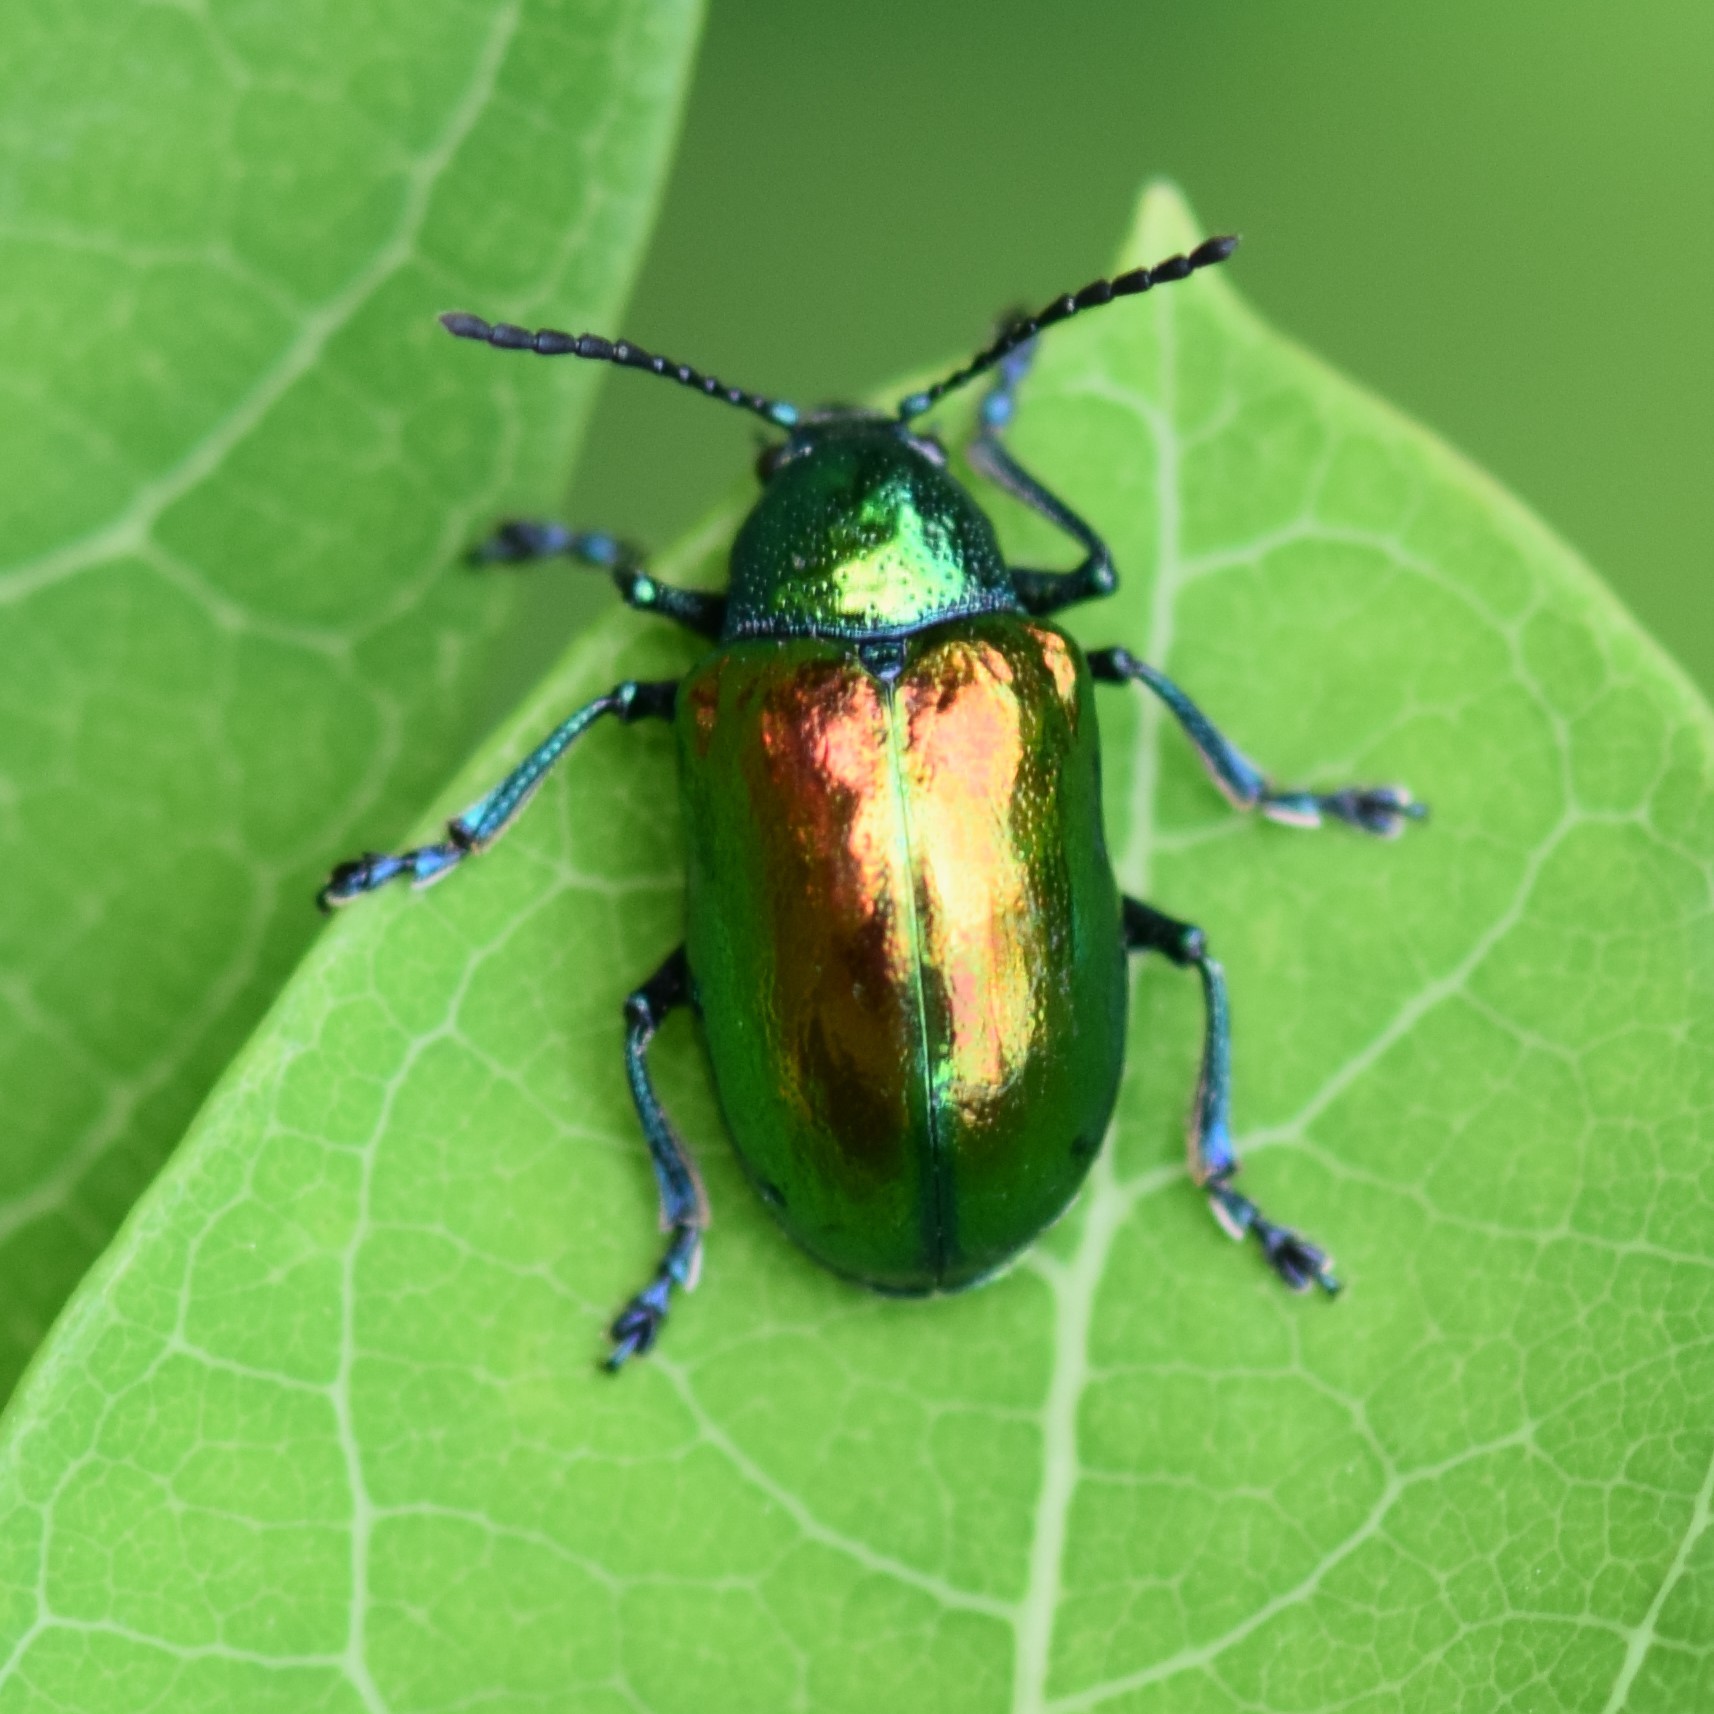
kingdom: Animalia
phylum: Arthropoda
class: Insecta
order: Coleoptera
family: Chrysomelidae
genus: Chrysochus
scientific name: Chrysochus auratus
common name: Dogbane leaf beetle
